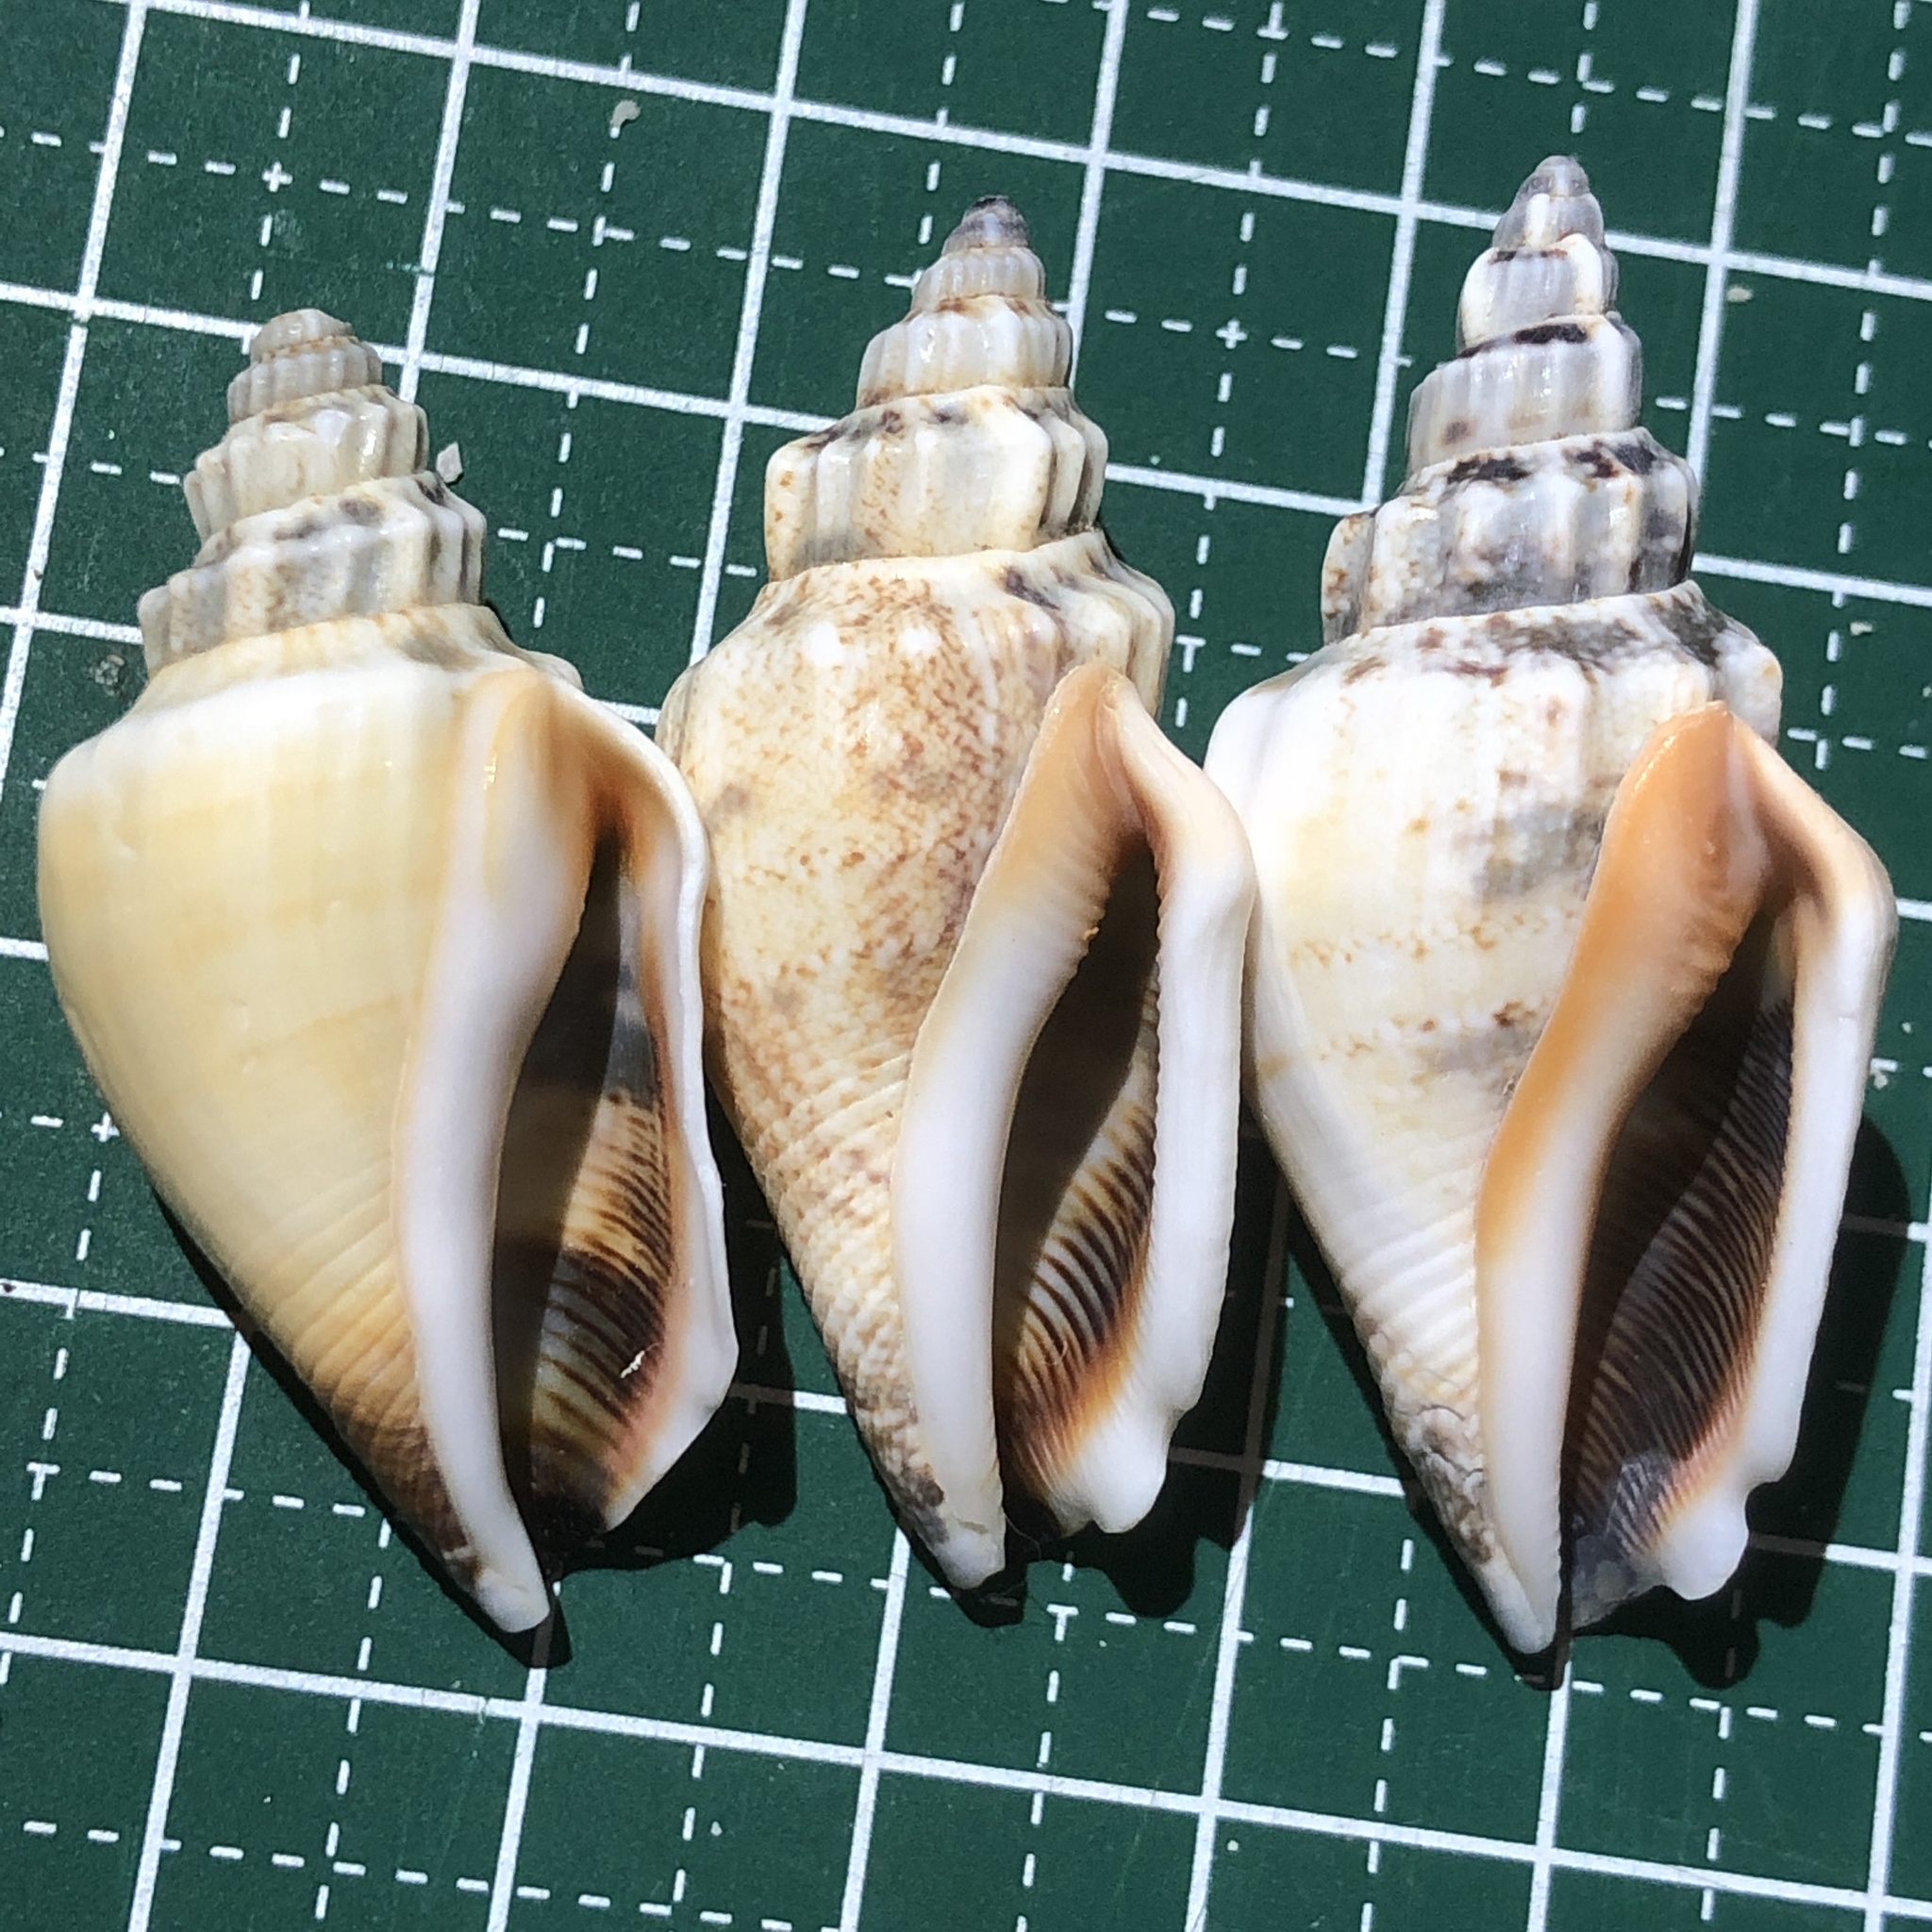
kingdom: Animalia
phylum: Mollusca
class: Gastropoda
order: Littorinimorpha
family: Strombidae
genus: Canarium
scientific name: Canarium urceus
